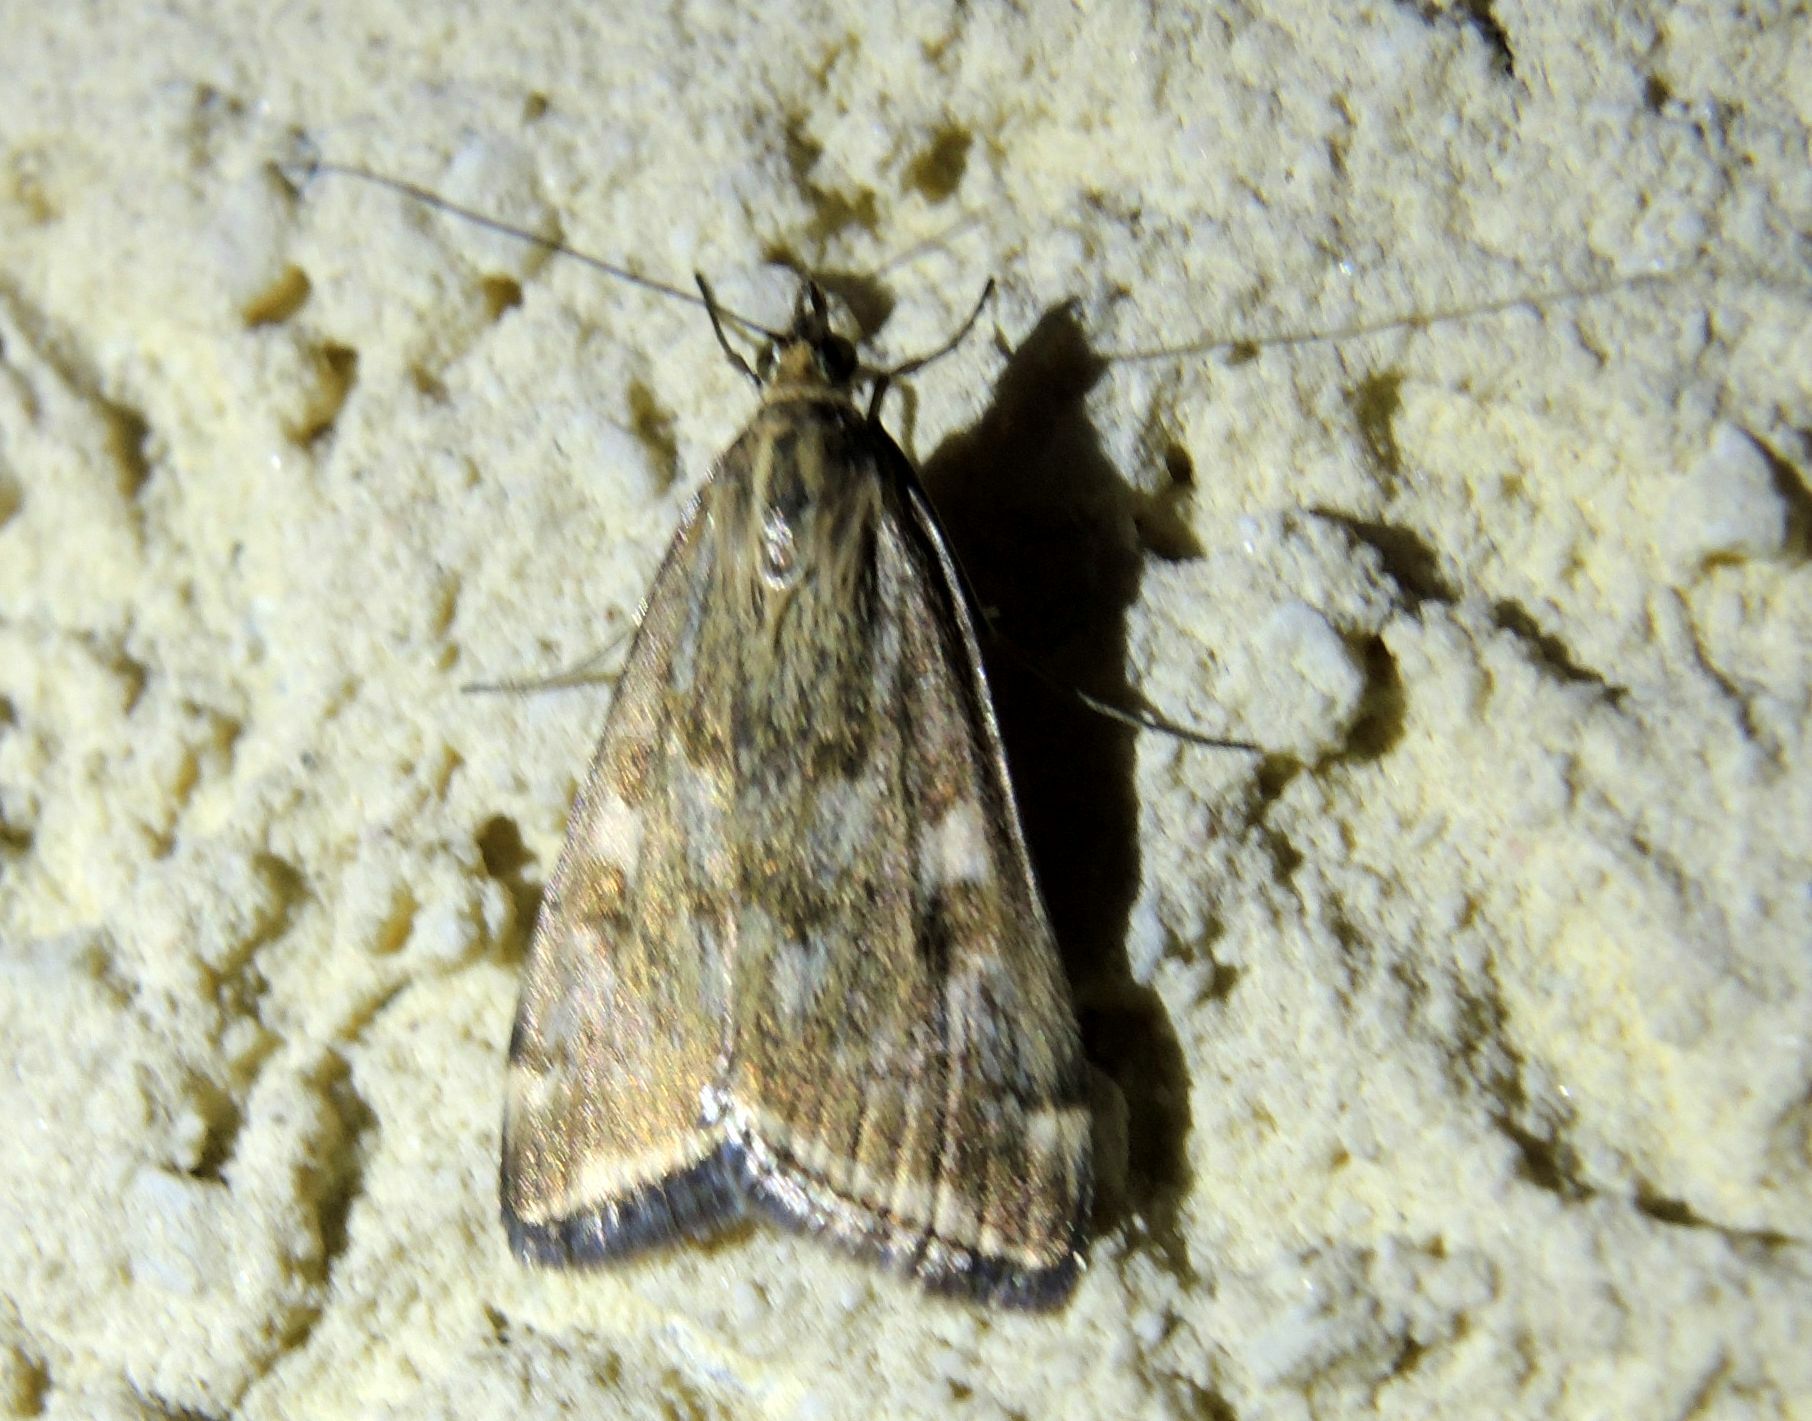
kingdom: Animalia
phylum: Arthropoda
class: Insecta
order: Lepidoptera
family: Crambidae
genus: Loxostege
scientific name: Loxostege sticticalis
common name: Crambid moth
